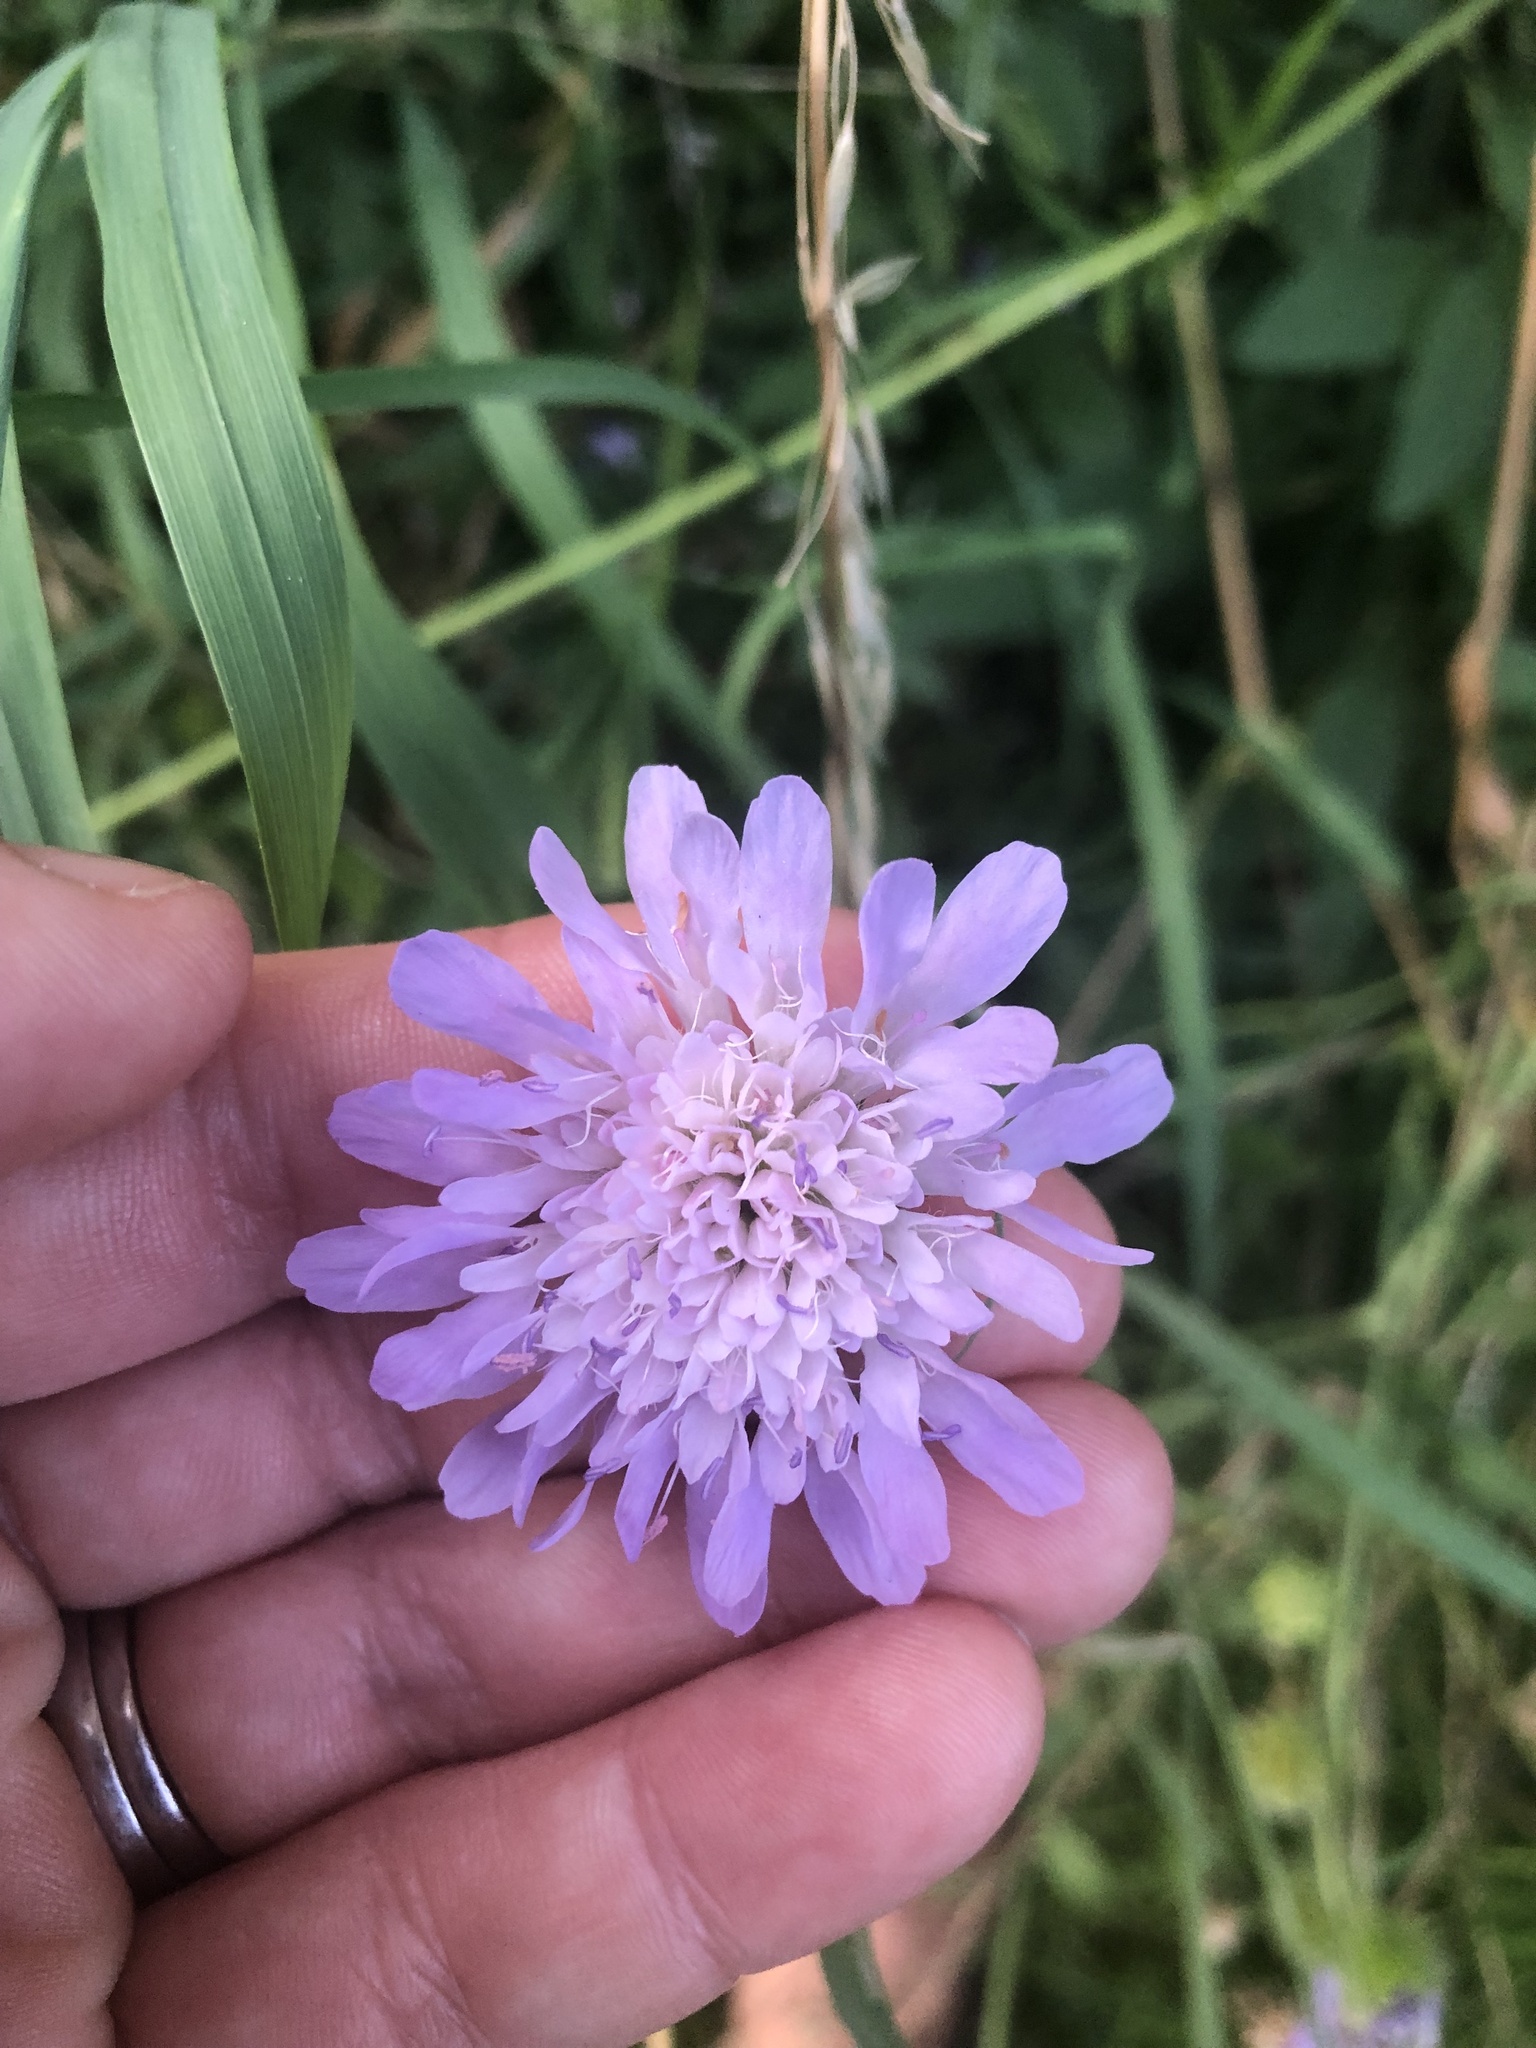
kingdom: Plantae
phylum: Tracheophyta
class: Magnoliopsida
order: Dipsacales
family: Caprifoliaceae
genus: Knautia
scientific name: Knautia arvensis
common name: Field scabiosa
